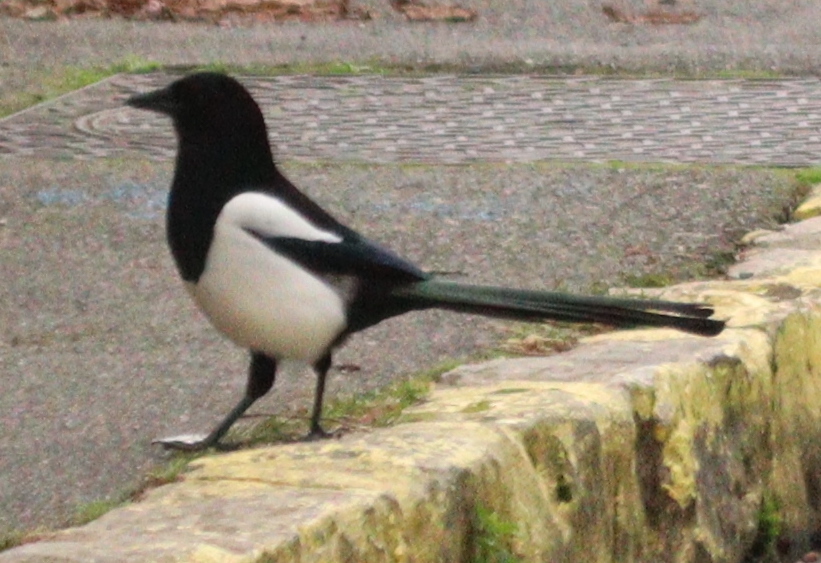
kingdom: Animalia
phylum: Chordata
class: Aves
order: Passeriformes
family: Corvidae
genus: Pica
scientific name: Pica pica
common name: Eurasian magpie
